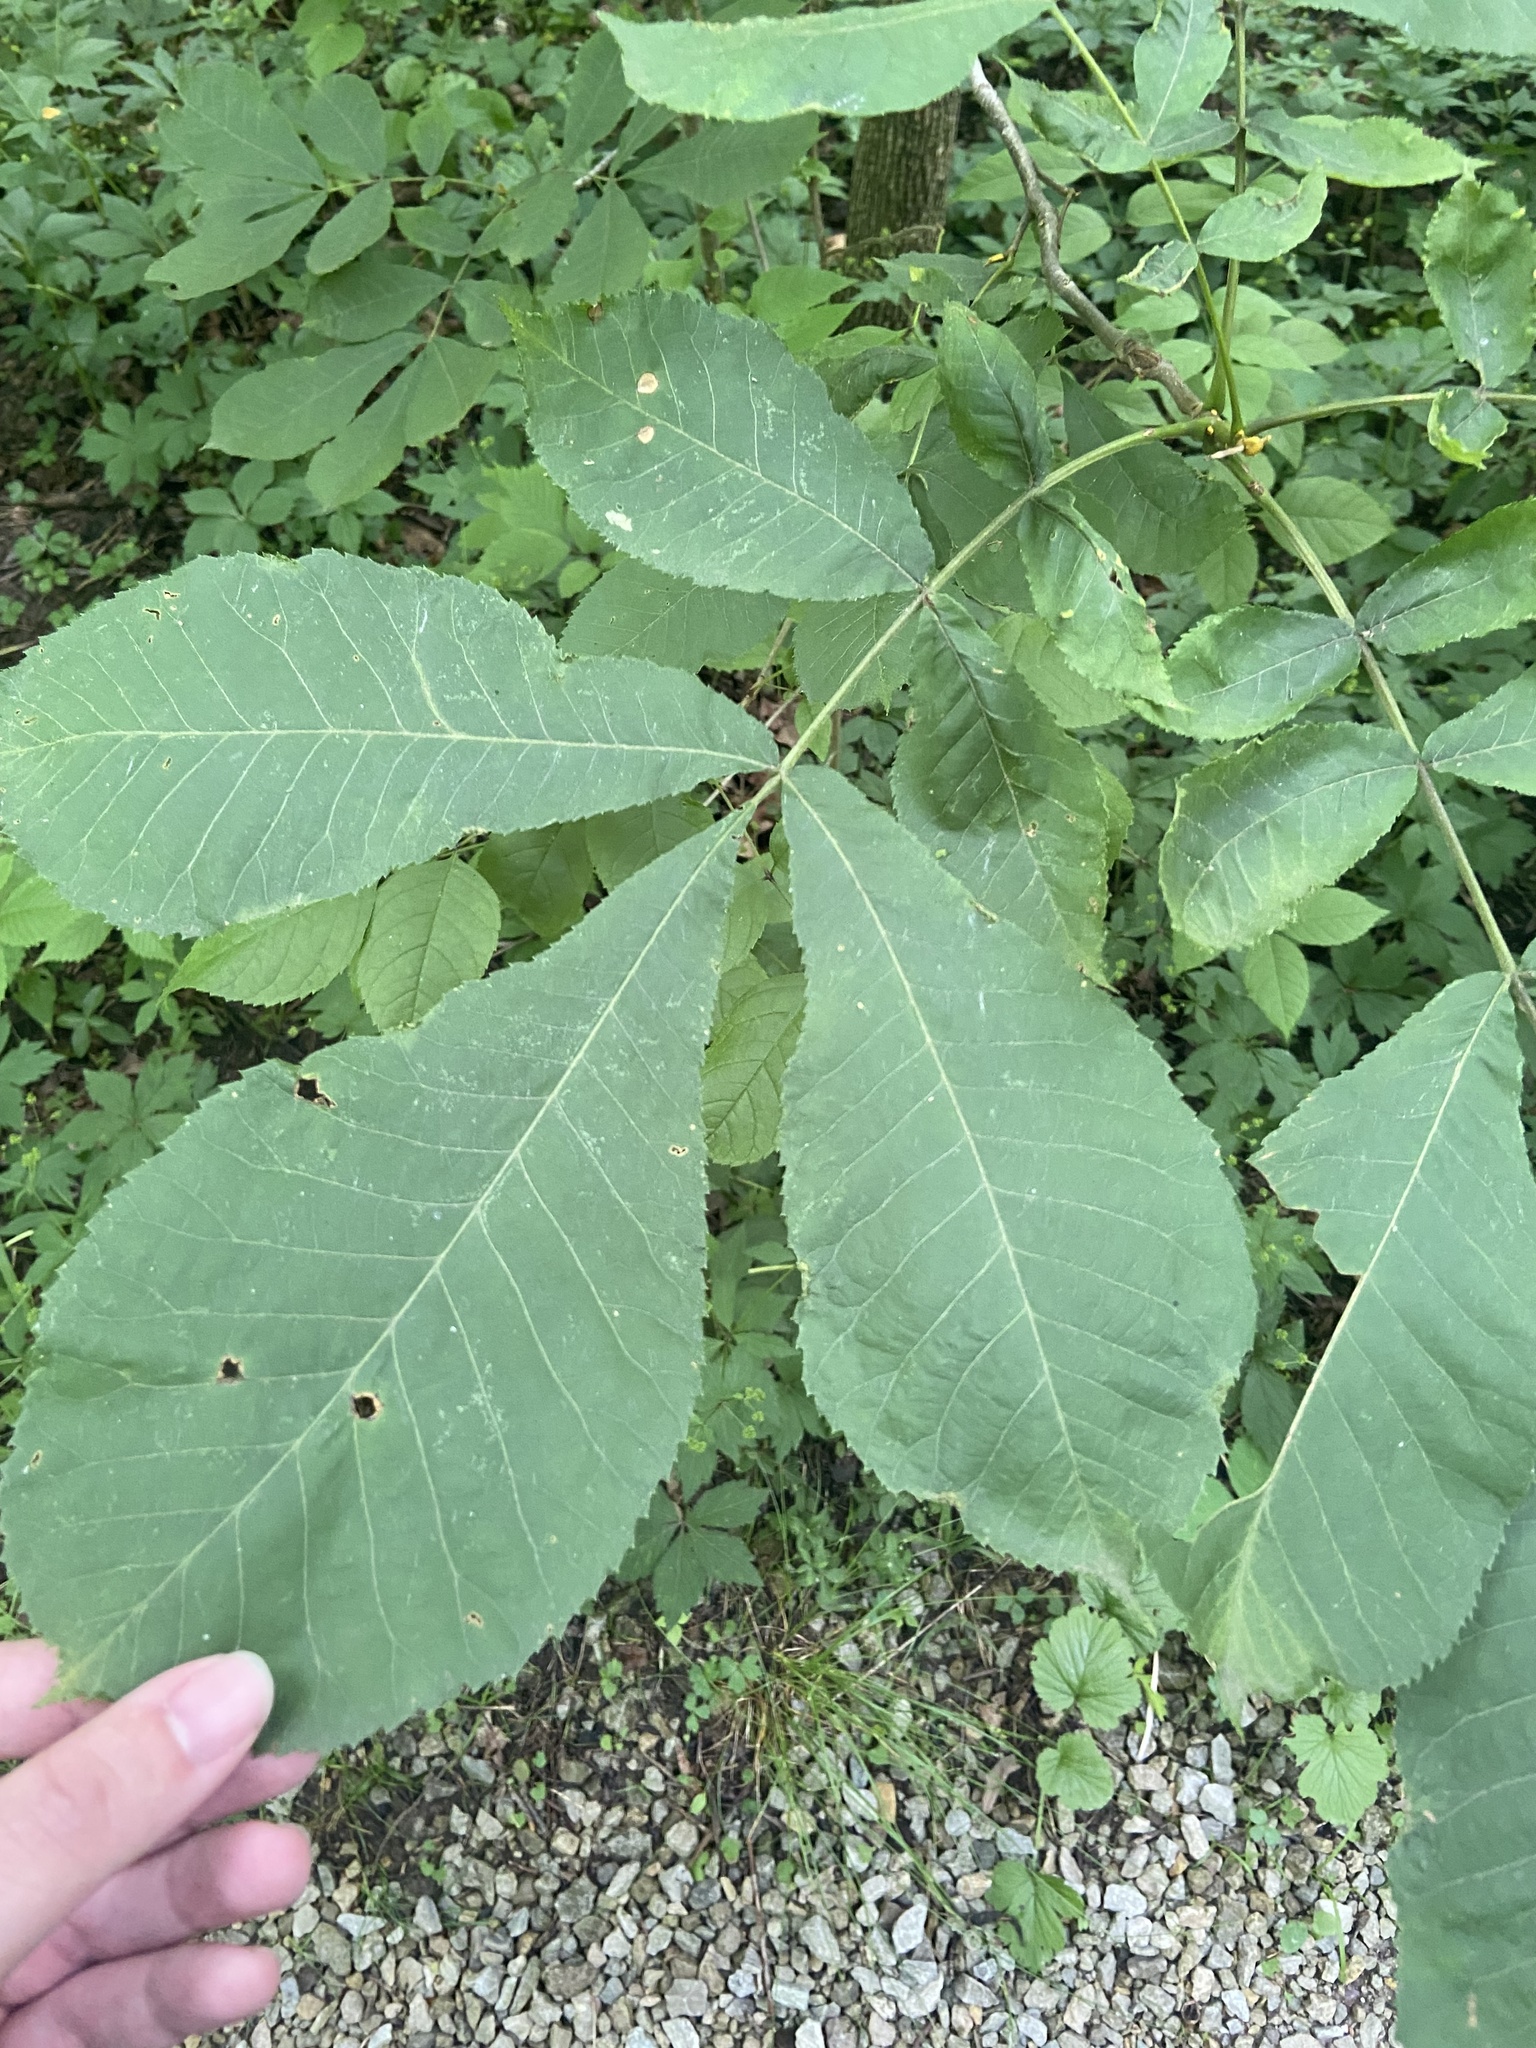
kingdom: Plantae
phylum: Tracheophyta
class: Magnoliopsida
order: Fagales
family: Juglandaceae
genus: Carya
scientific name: Carya cordiformis
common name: Bitternut hickory
